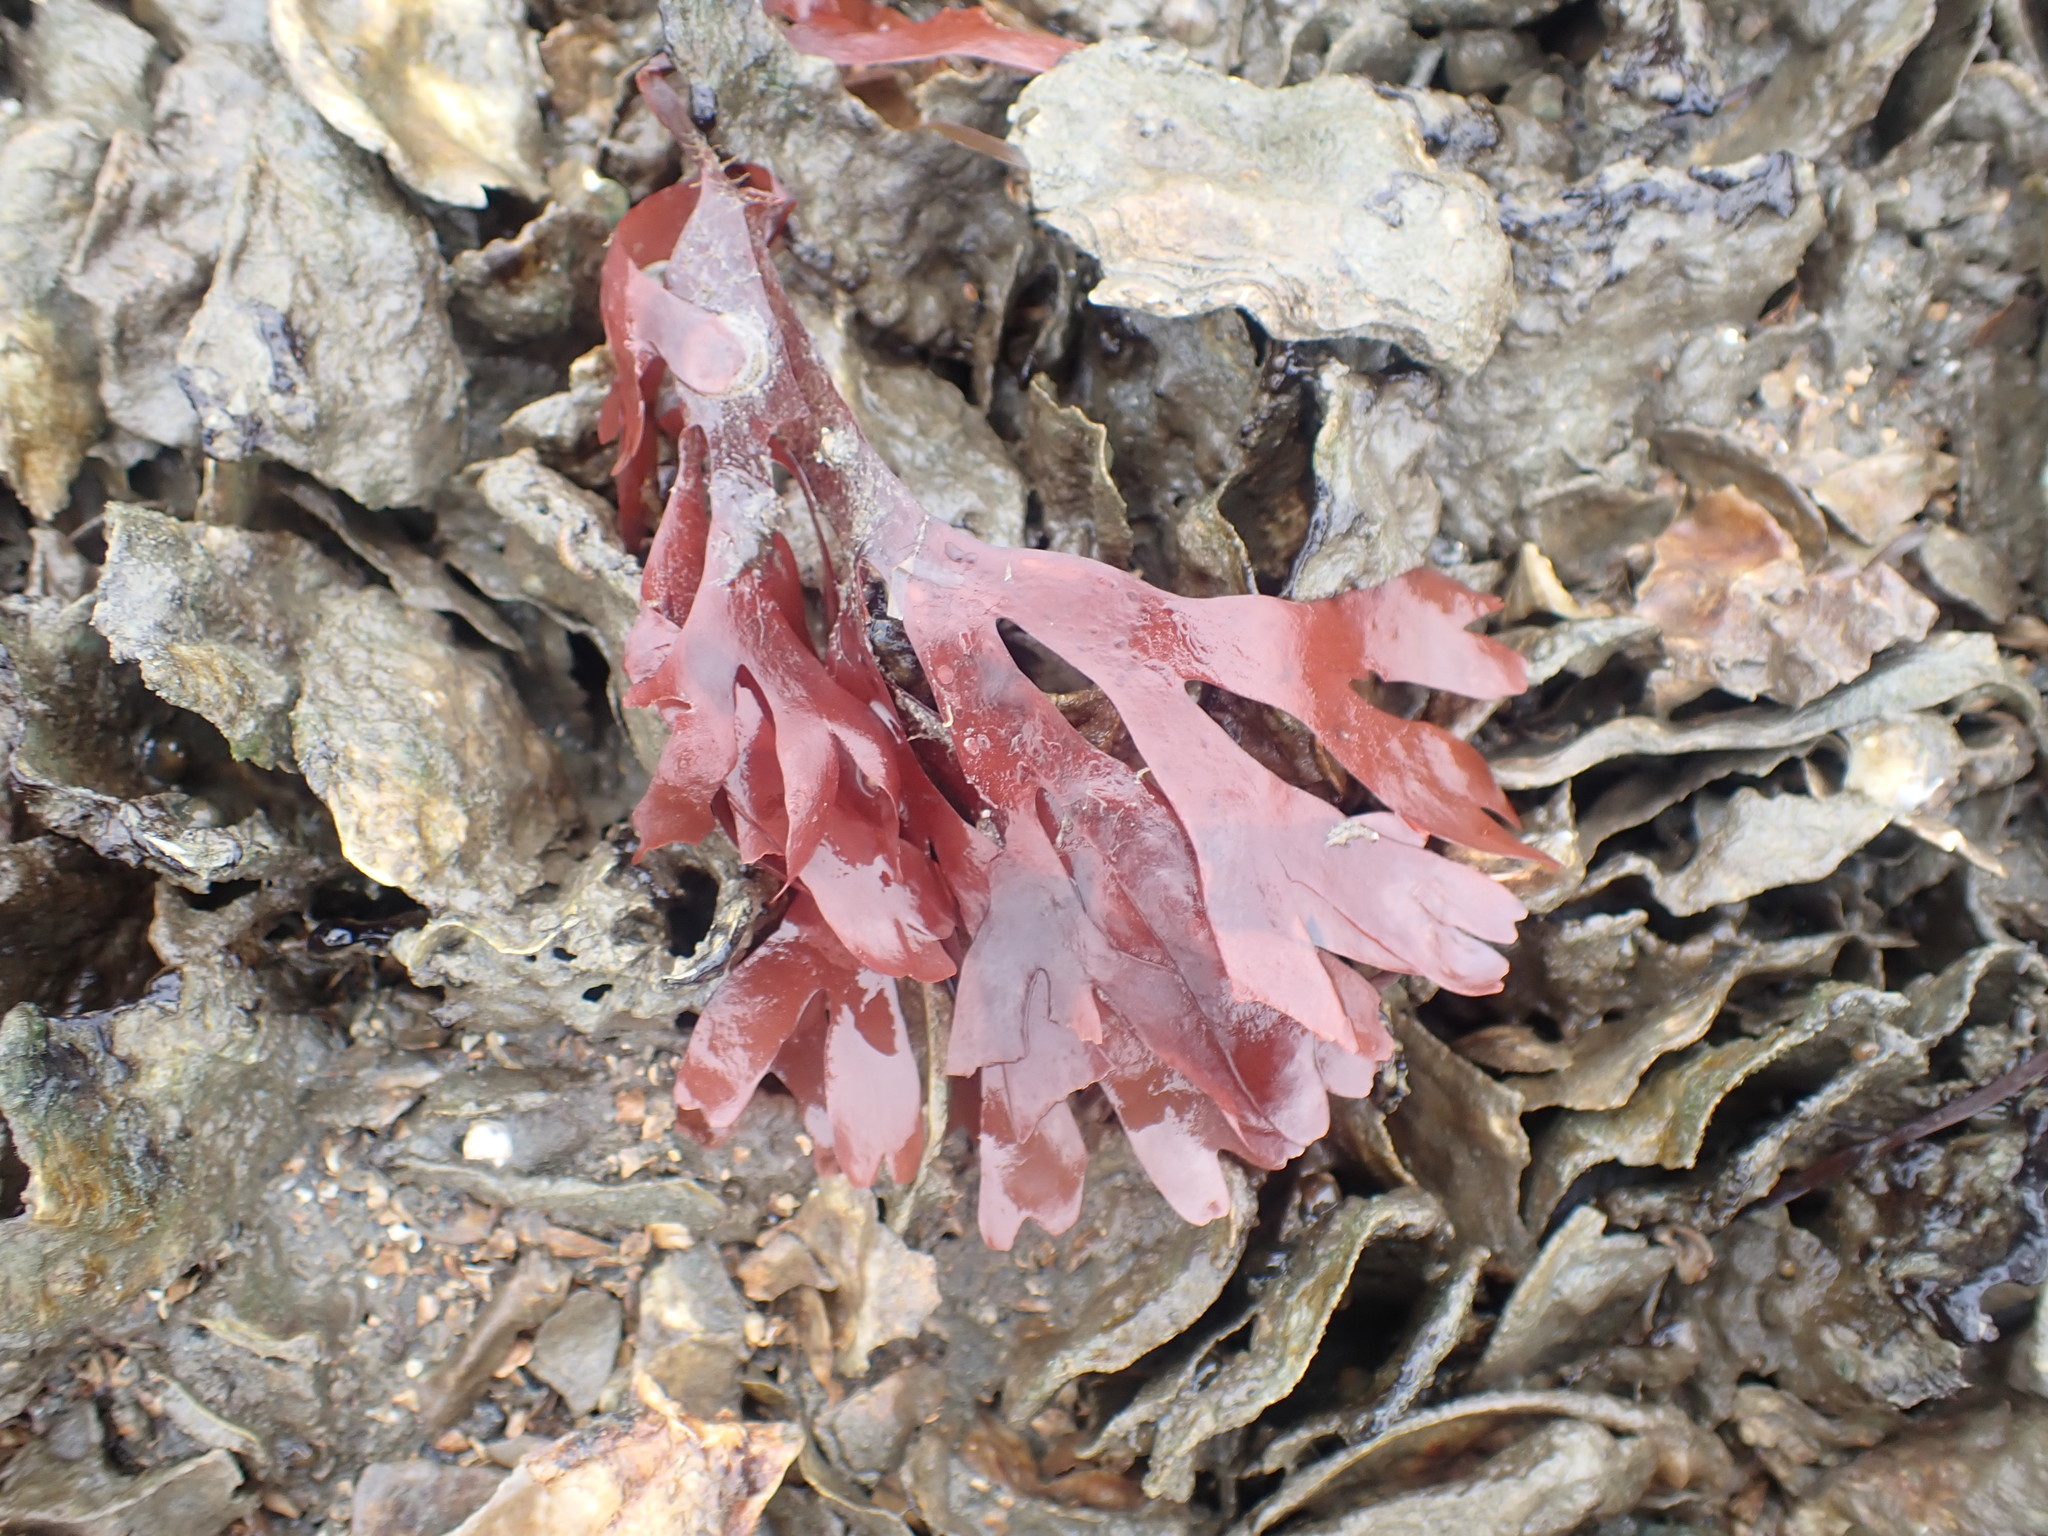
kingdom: Plantae
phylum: Rhodophyta
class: Florideophyceae
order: Gigartinales
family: Phyllophoraceae
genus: Stenogramma
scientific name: Stenogramma interruptum
